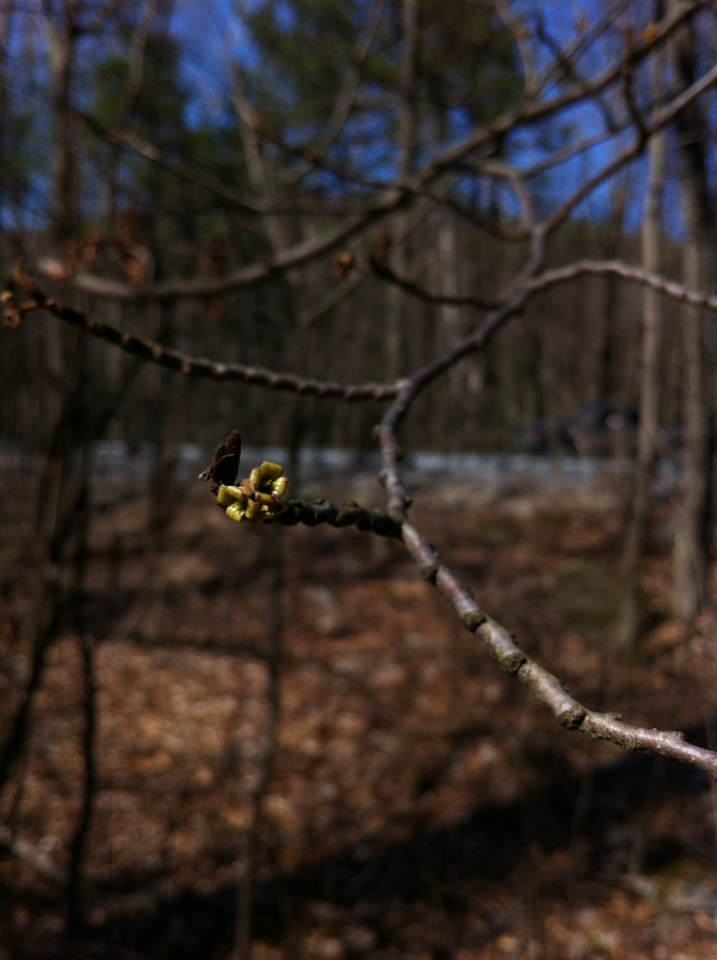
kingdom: Plantae
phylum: Tracheophyta
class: Magnoliopsida
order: Saxifragales
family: Hamamelidaceae
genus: Hamamelis
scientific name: Hamamelis virginiana
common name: Witch-hazel
